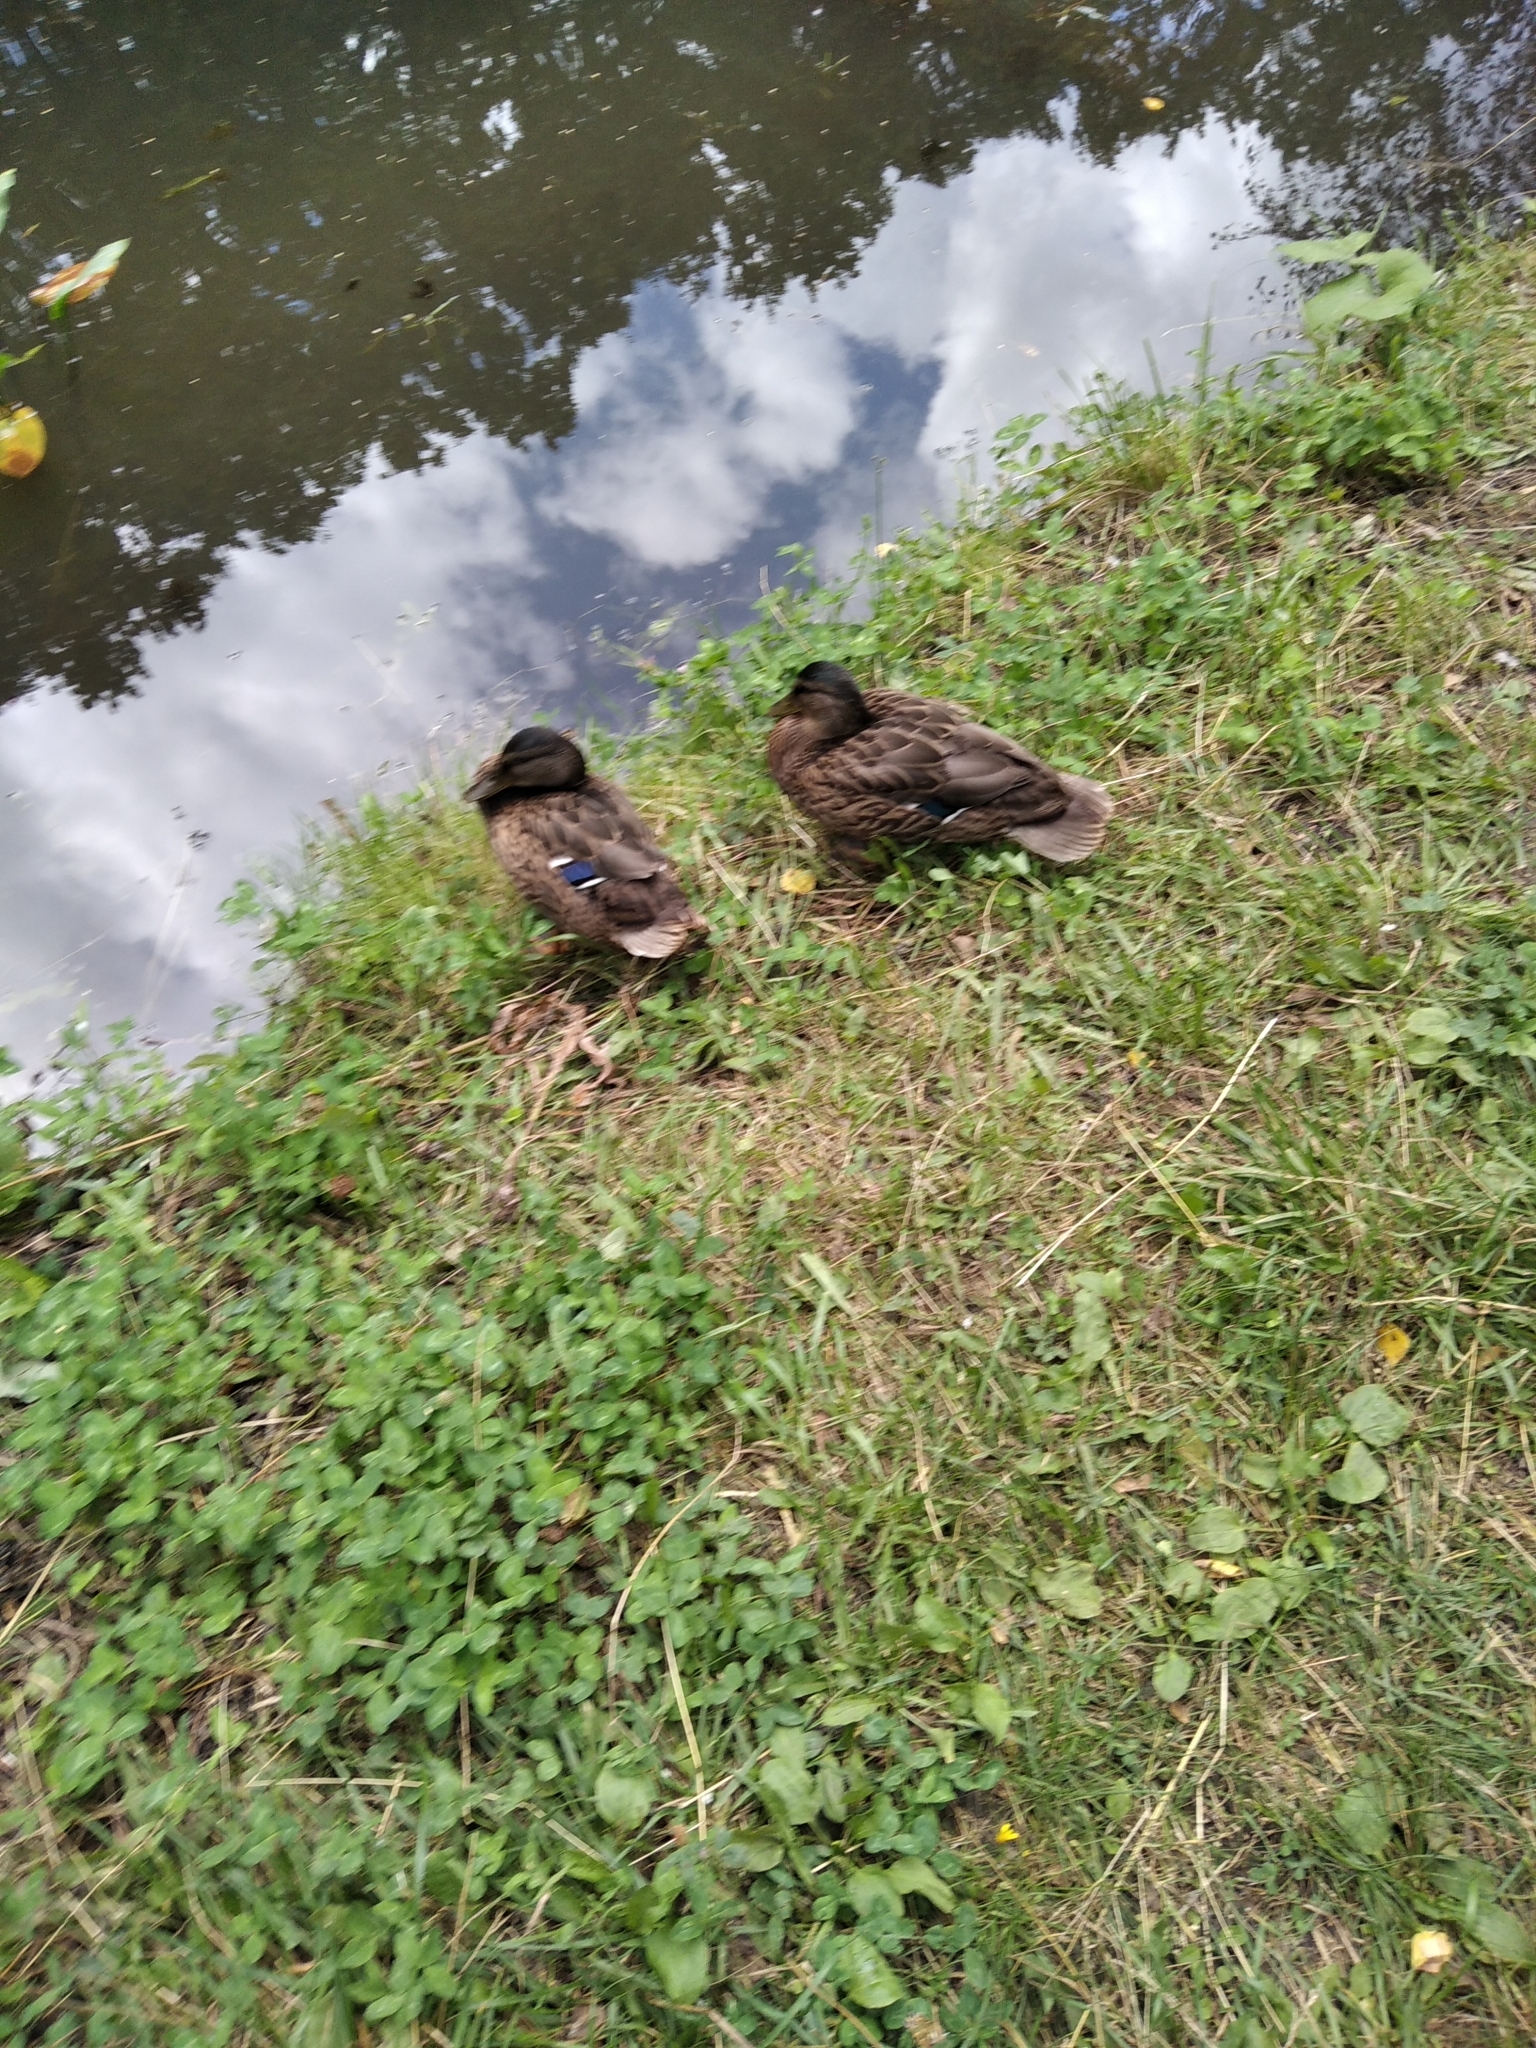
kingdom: Animalia
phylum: Chordata
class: Aves
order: Anseriformes
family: Anatidae
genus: Anas
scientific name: Anas platyrhynchos
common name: Mallard
